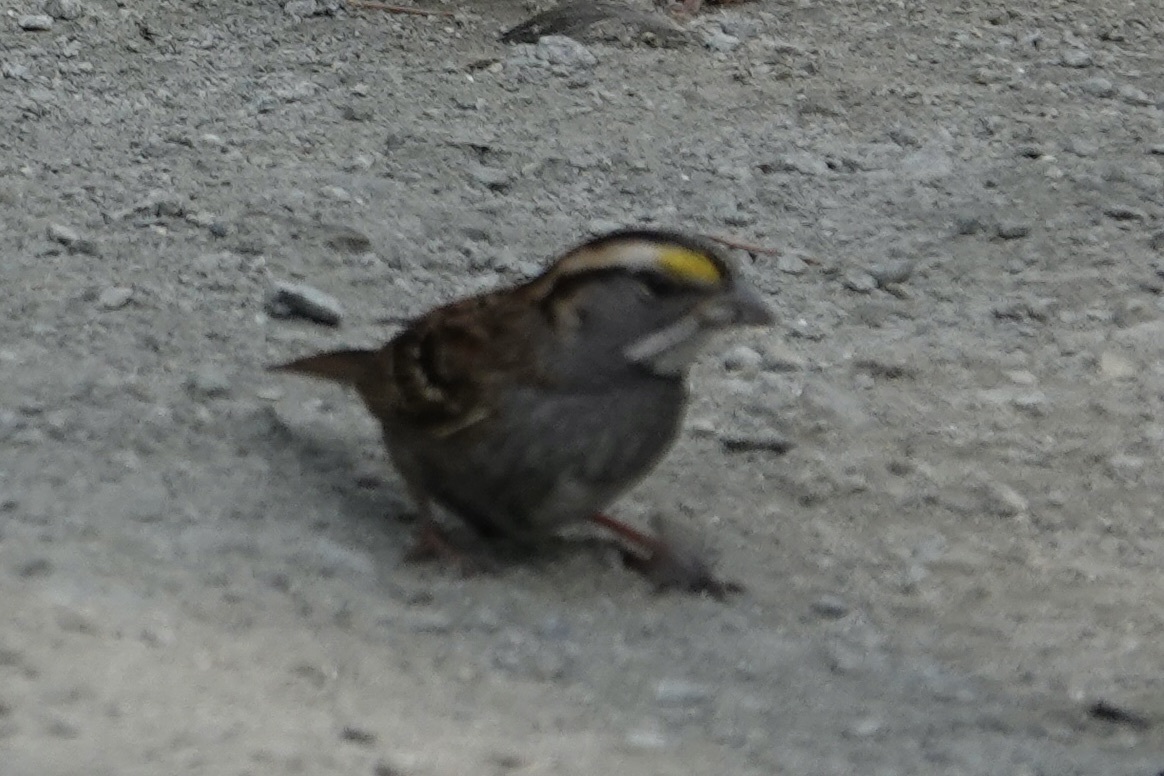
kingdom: Animalia
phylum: Chordata
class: Aves
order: Passeriformes
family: Passerellidae
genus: Zonotrichia
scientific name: Zonotrichia albicollis
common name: White-throated sparrow
